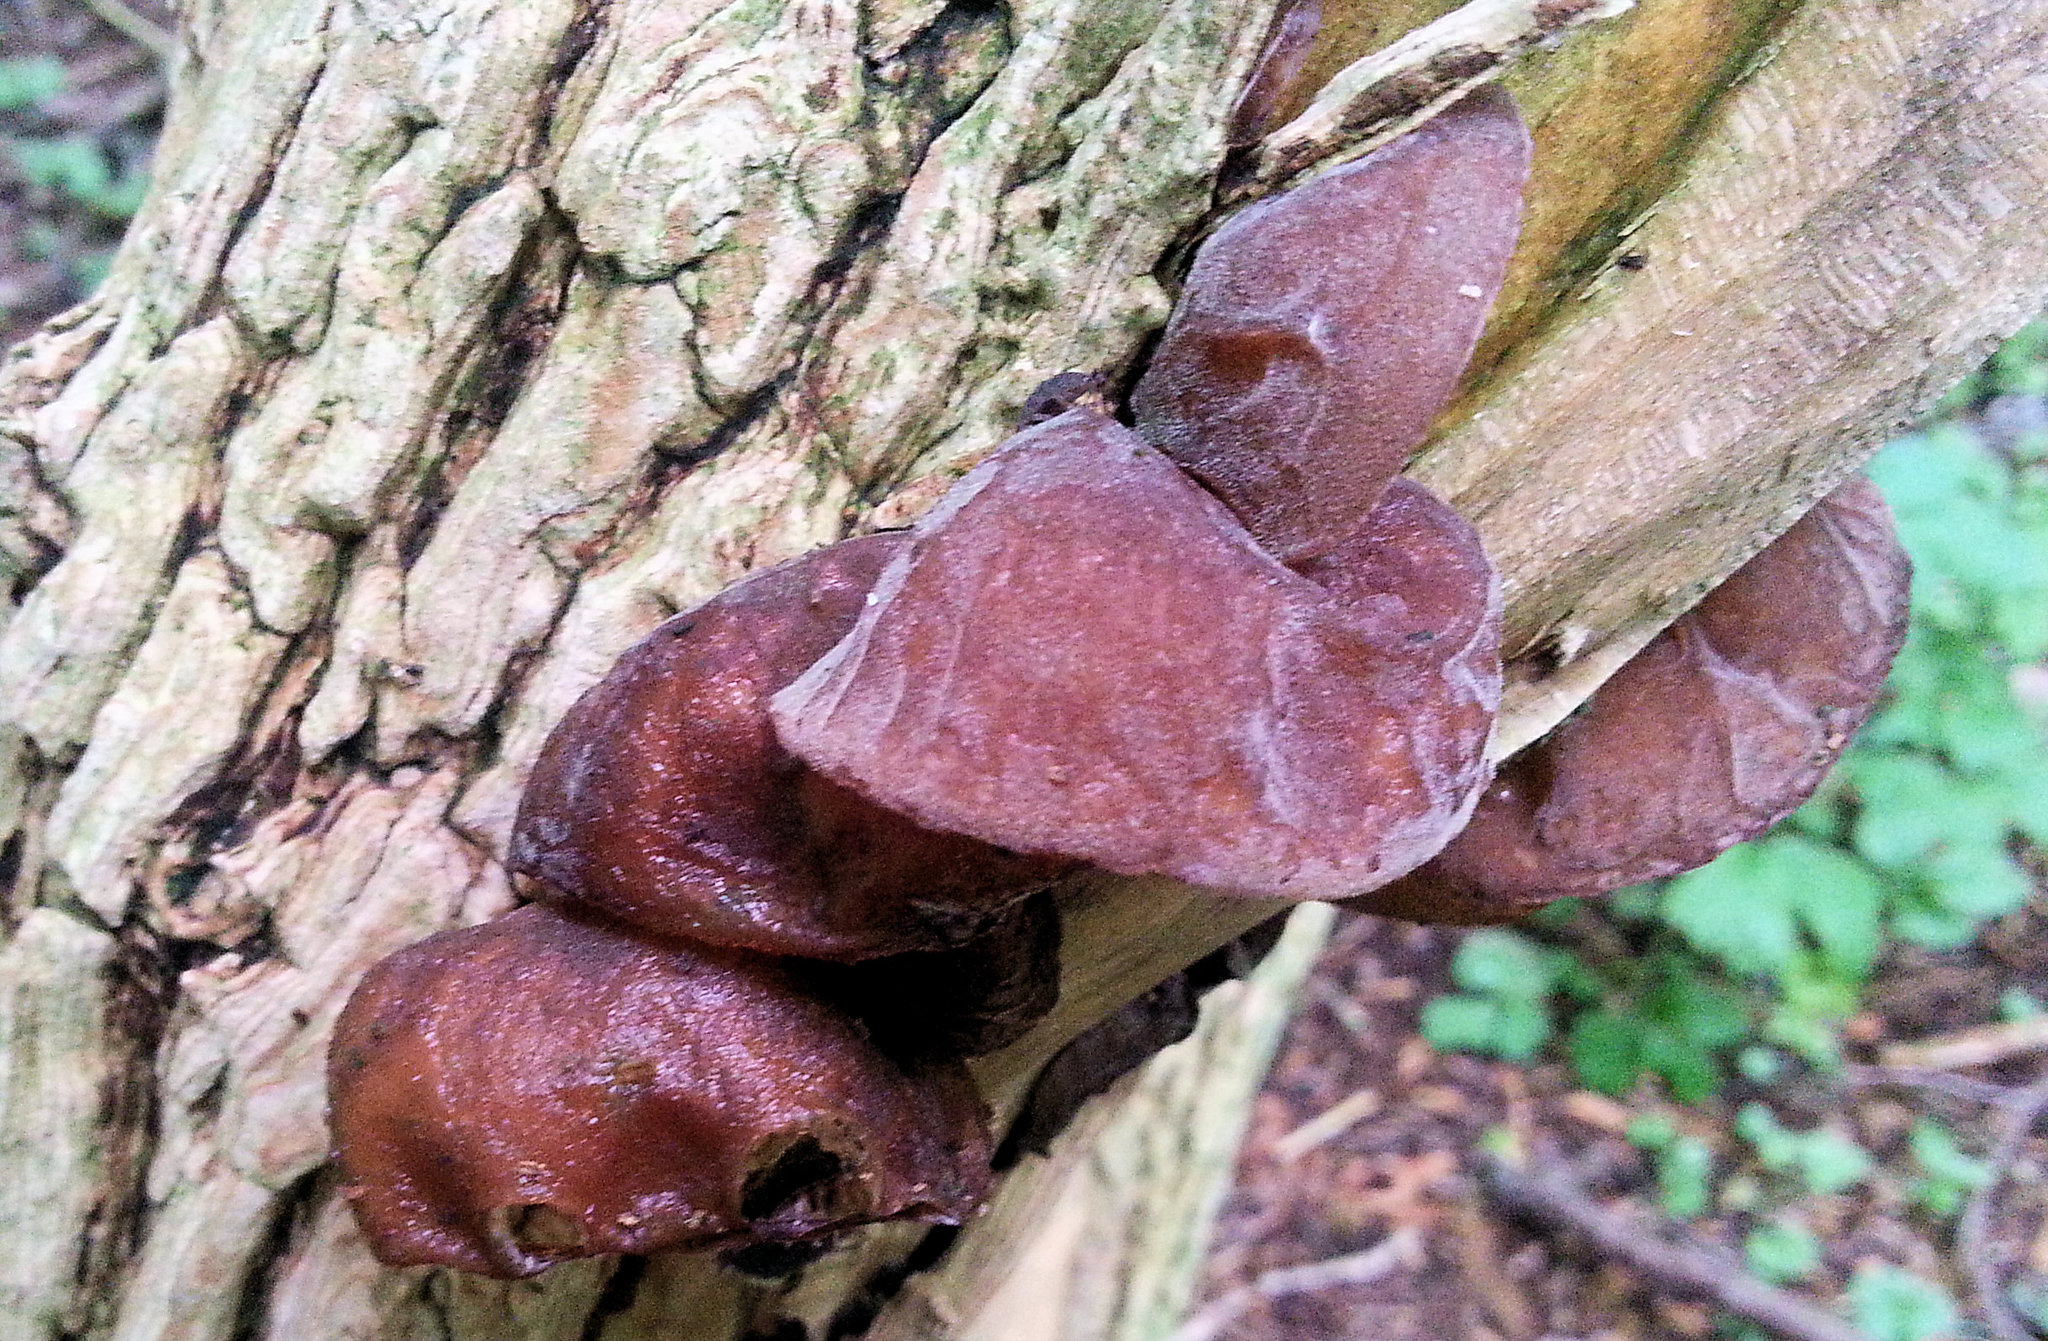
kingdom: Fungi
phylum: Basidiomycota
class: Agaricomycetes
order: Auriculariales
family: Auriculariaceae
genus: Auricularia
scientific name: Auricularia auricula-judae
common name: Jelly ear
